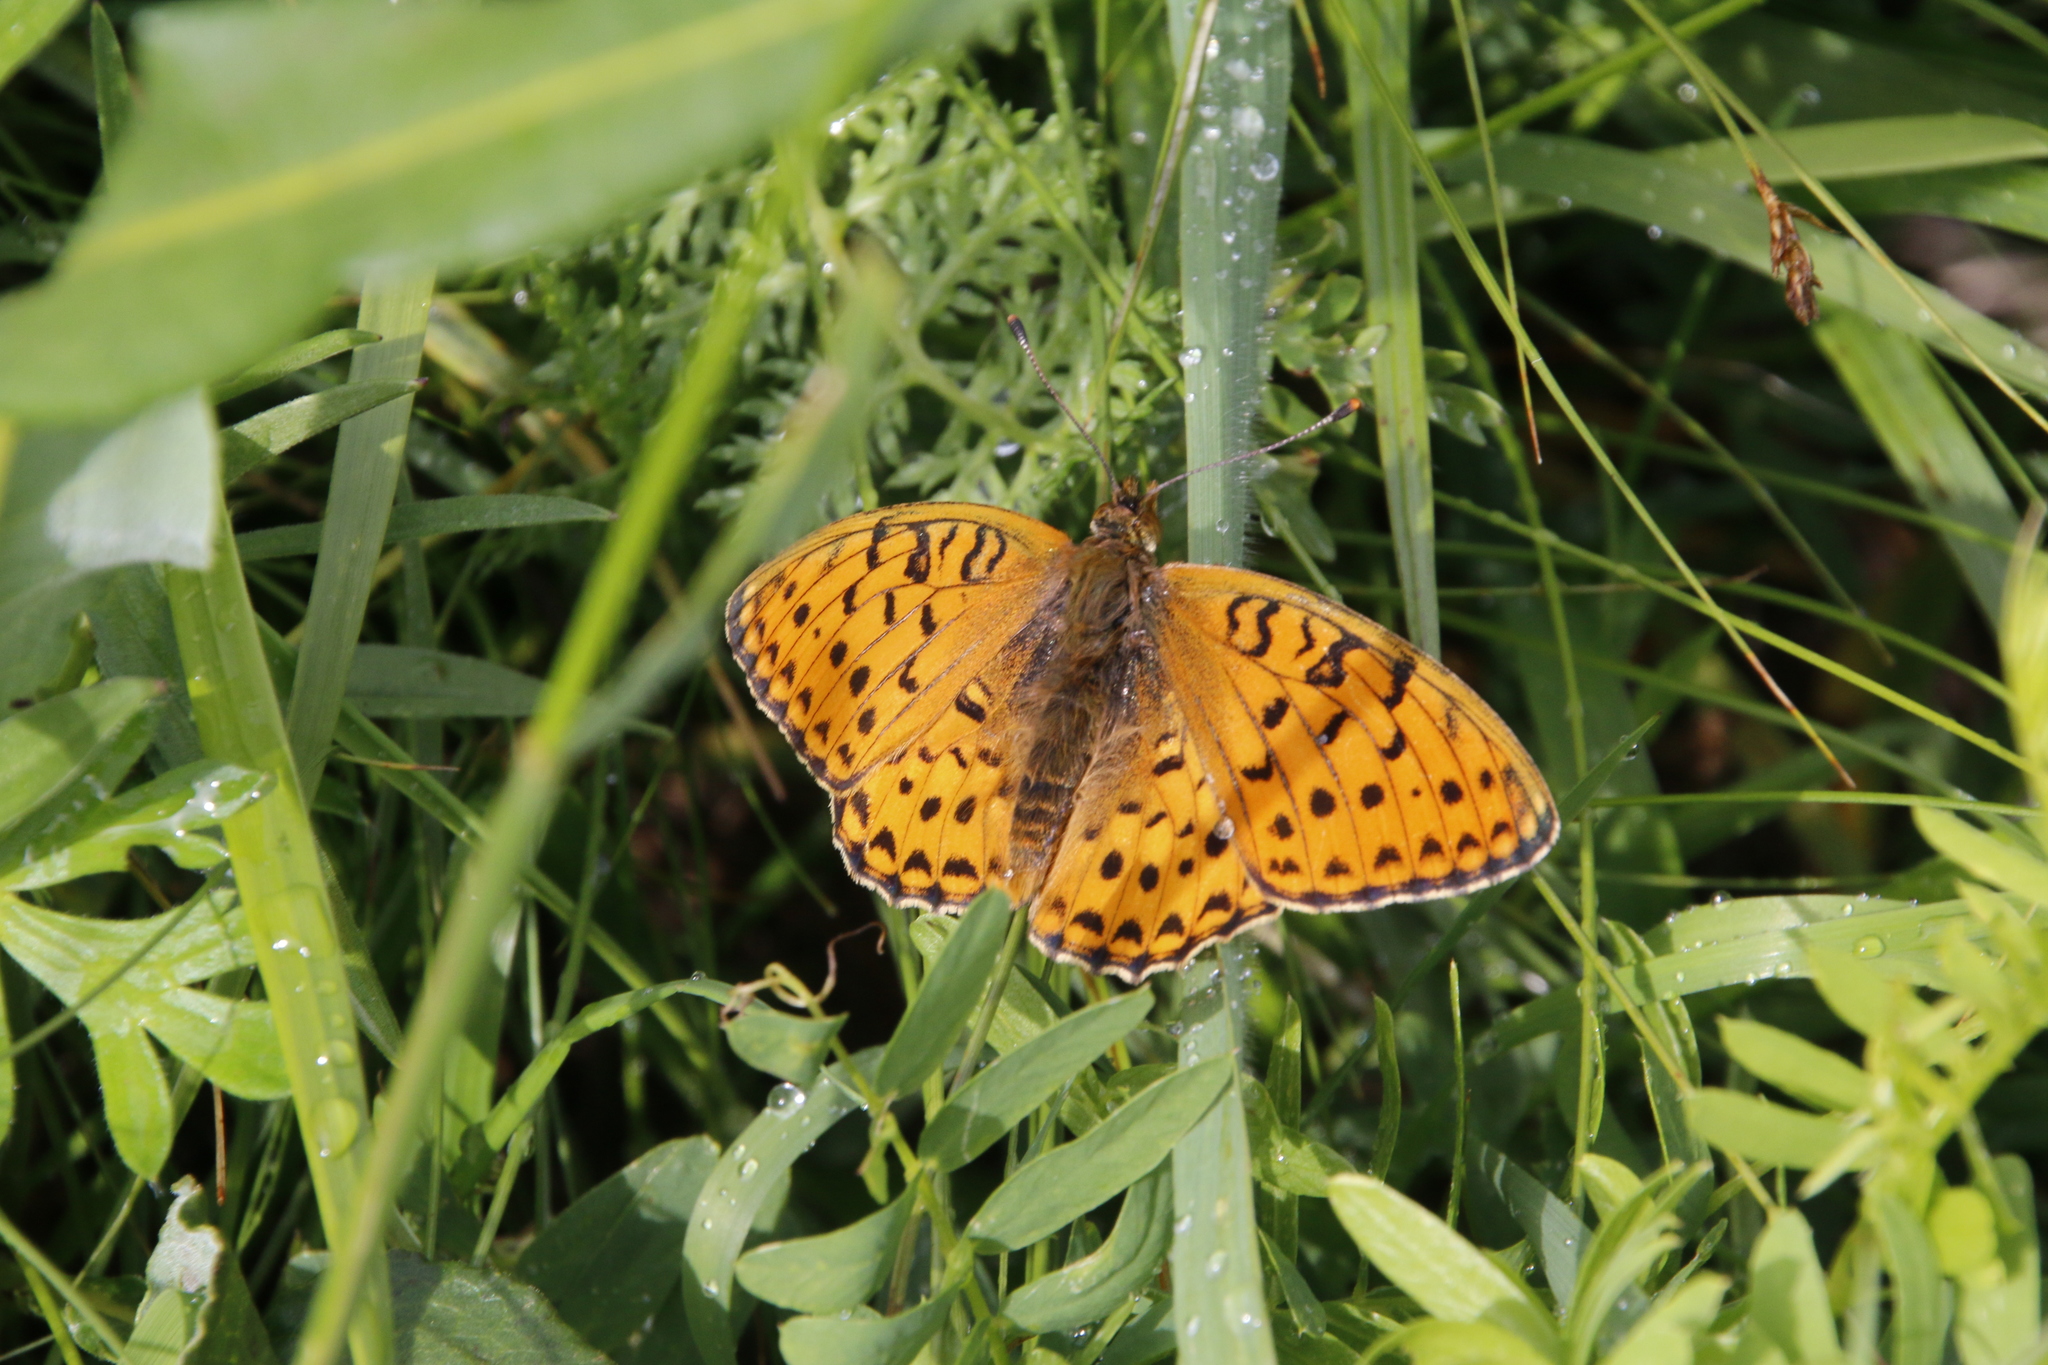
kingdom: Animalia
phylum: Arthropoda
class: Insecta
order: Lepidoptera
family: Nymphalidae
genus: Speyeria
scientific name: Speyeria aglaja
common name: Dark green fritillary
